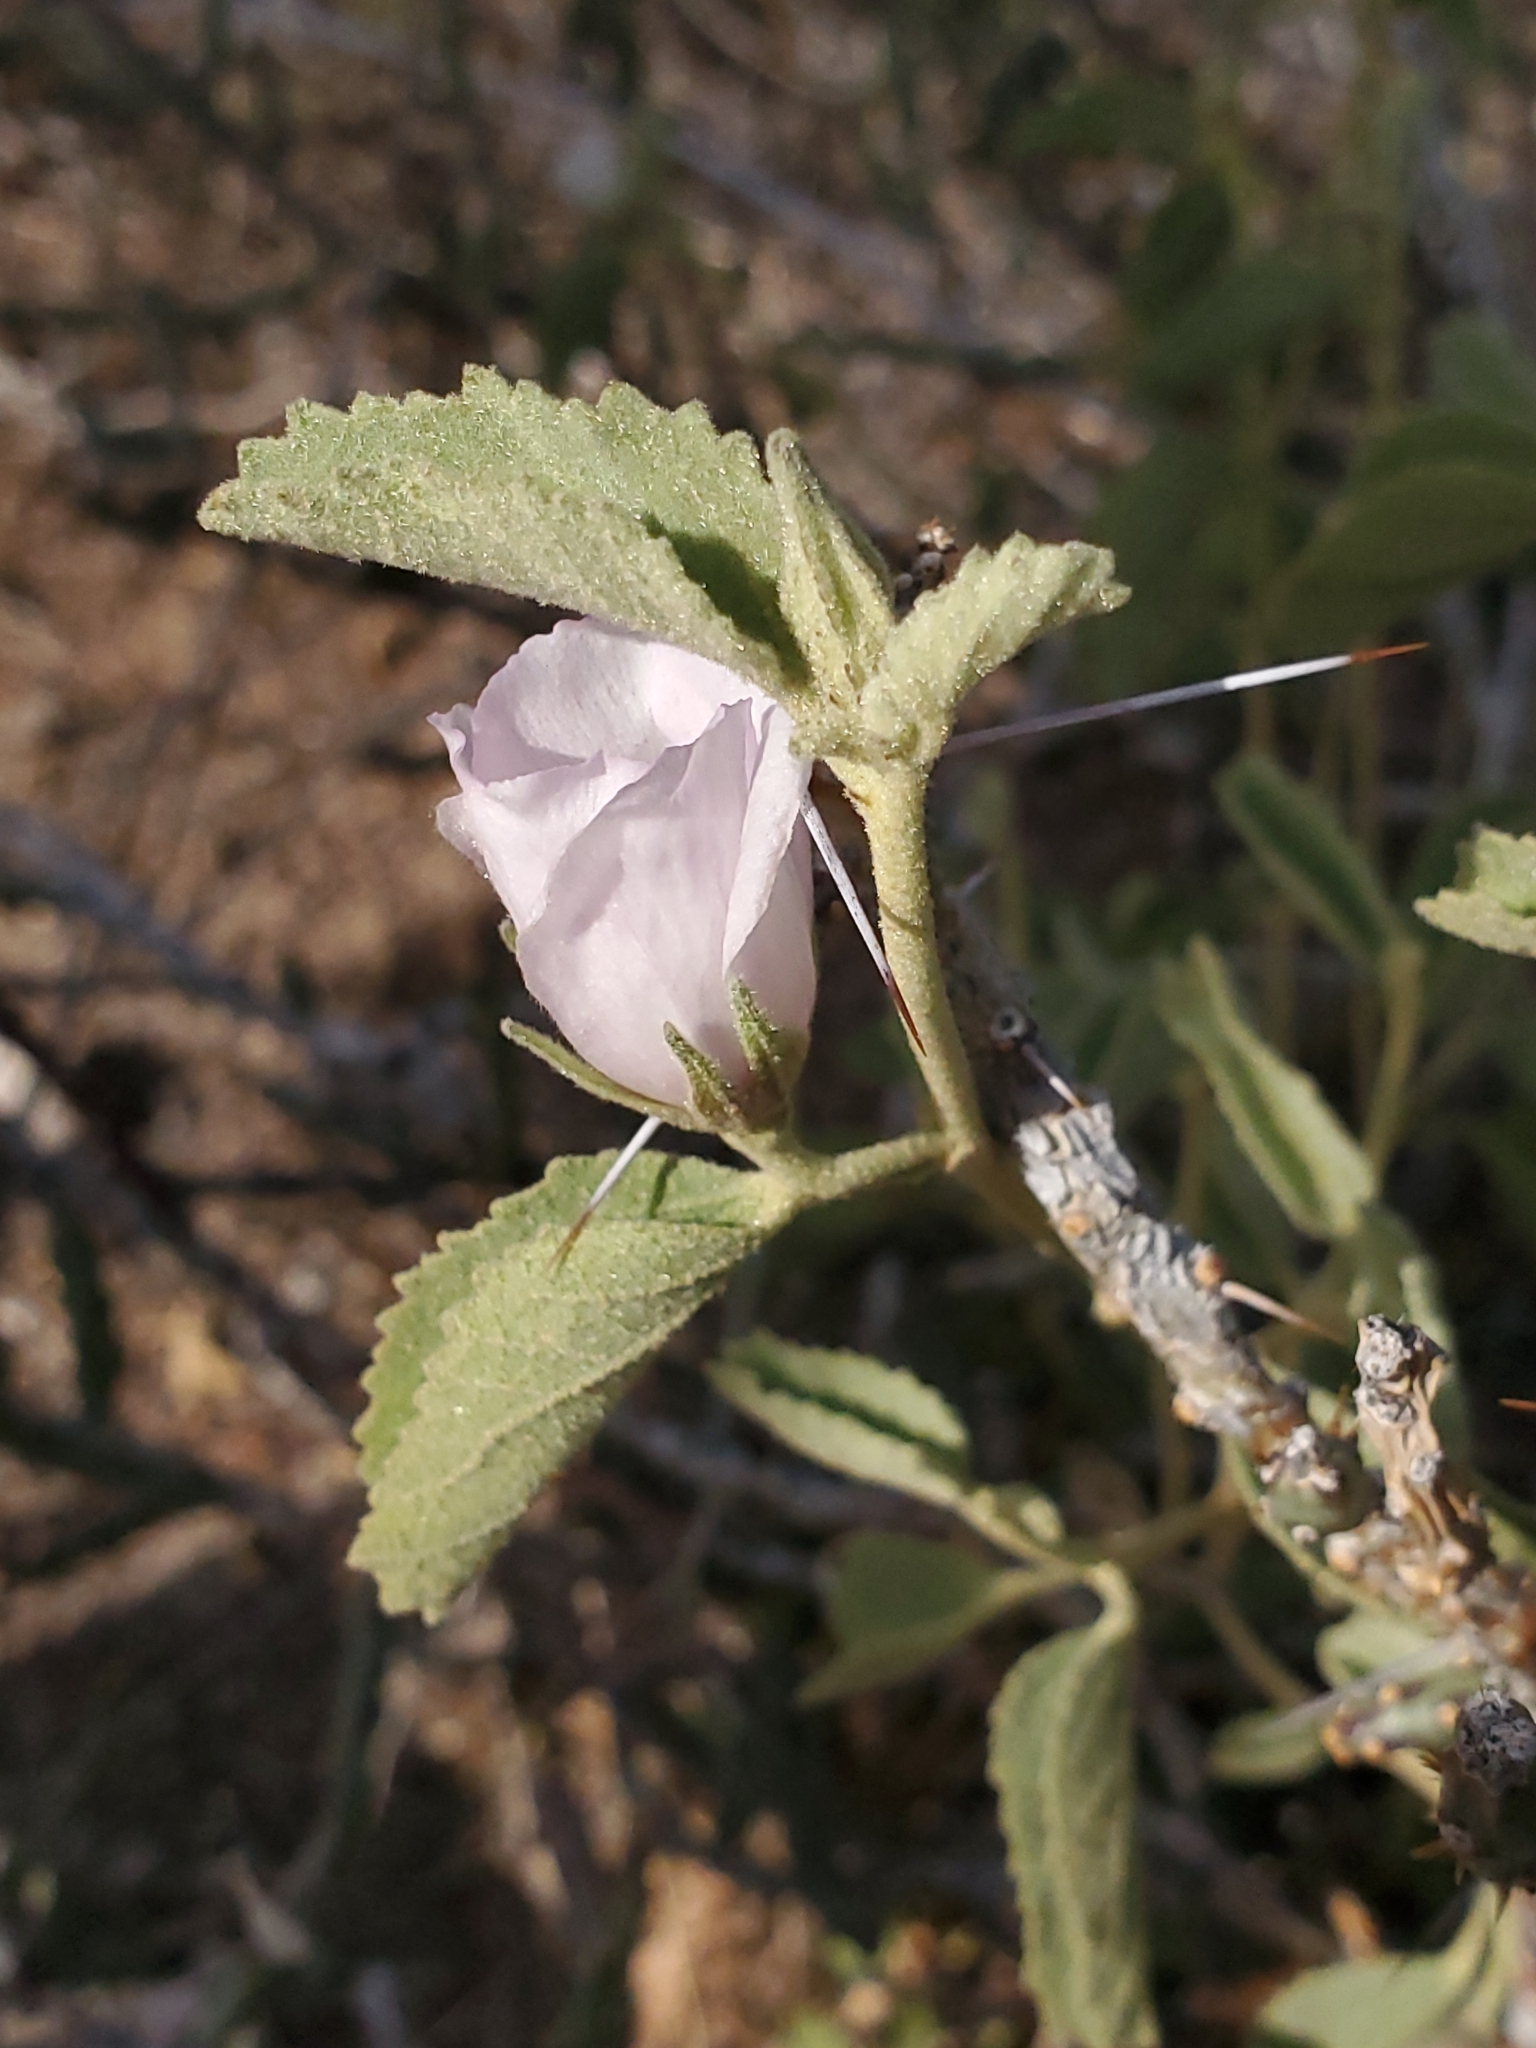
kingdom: Plantae
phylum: Tracheophyta
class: Magnoliopsida
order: Malvales
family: Malvaceae
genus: Hibiscus
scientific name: Hibiscus denudatus
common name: Paleface
